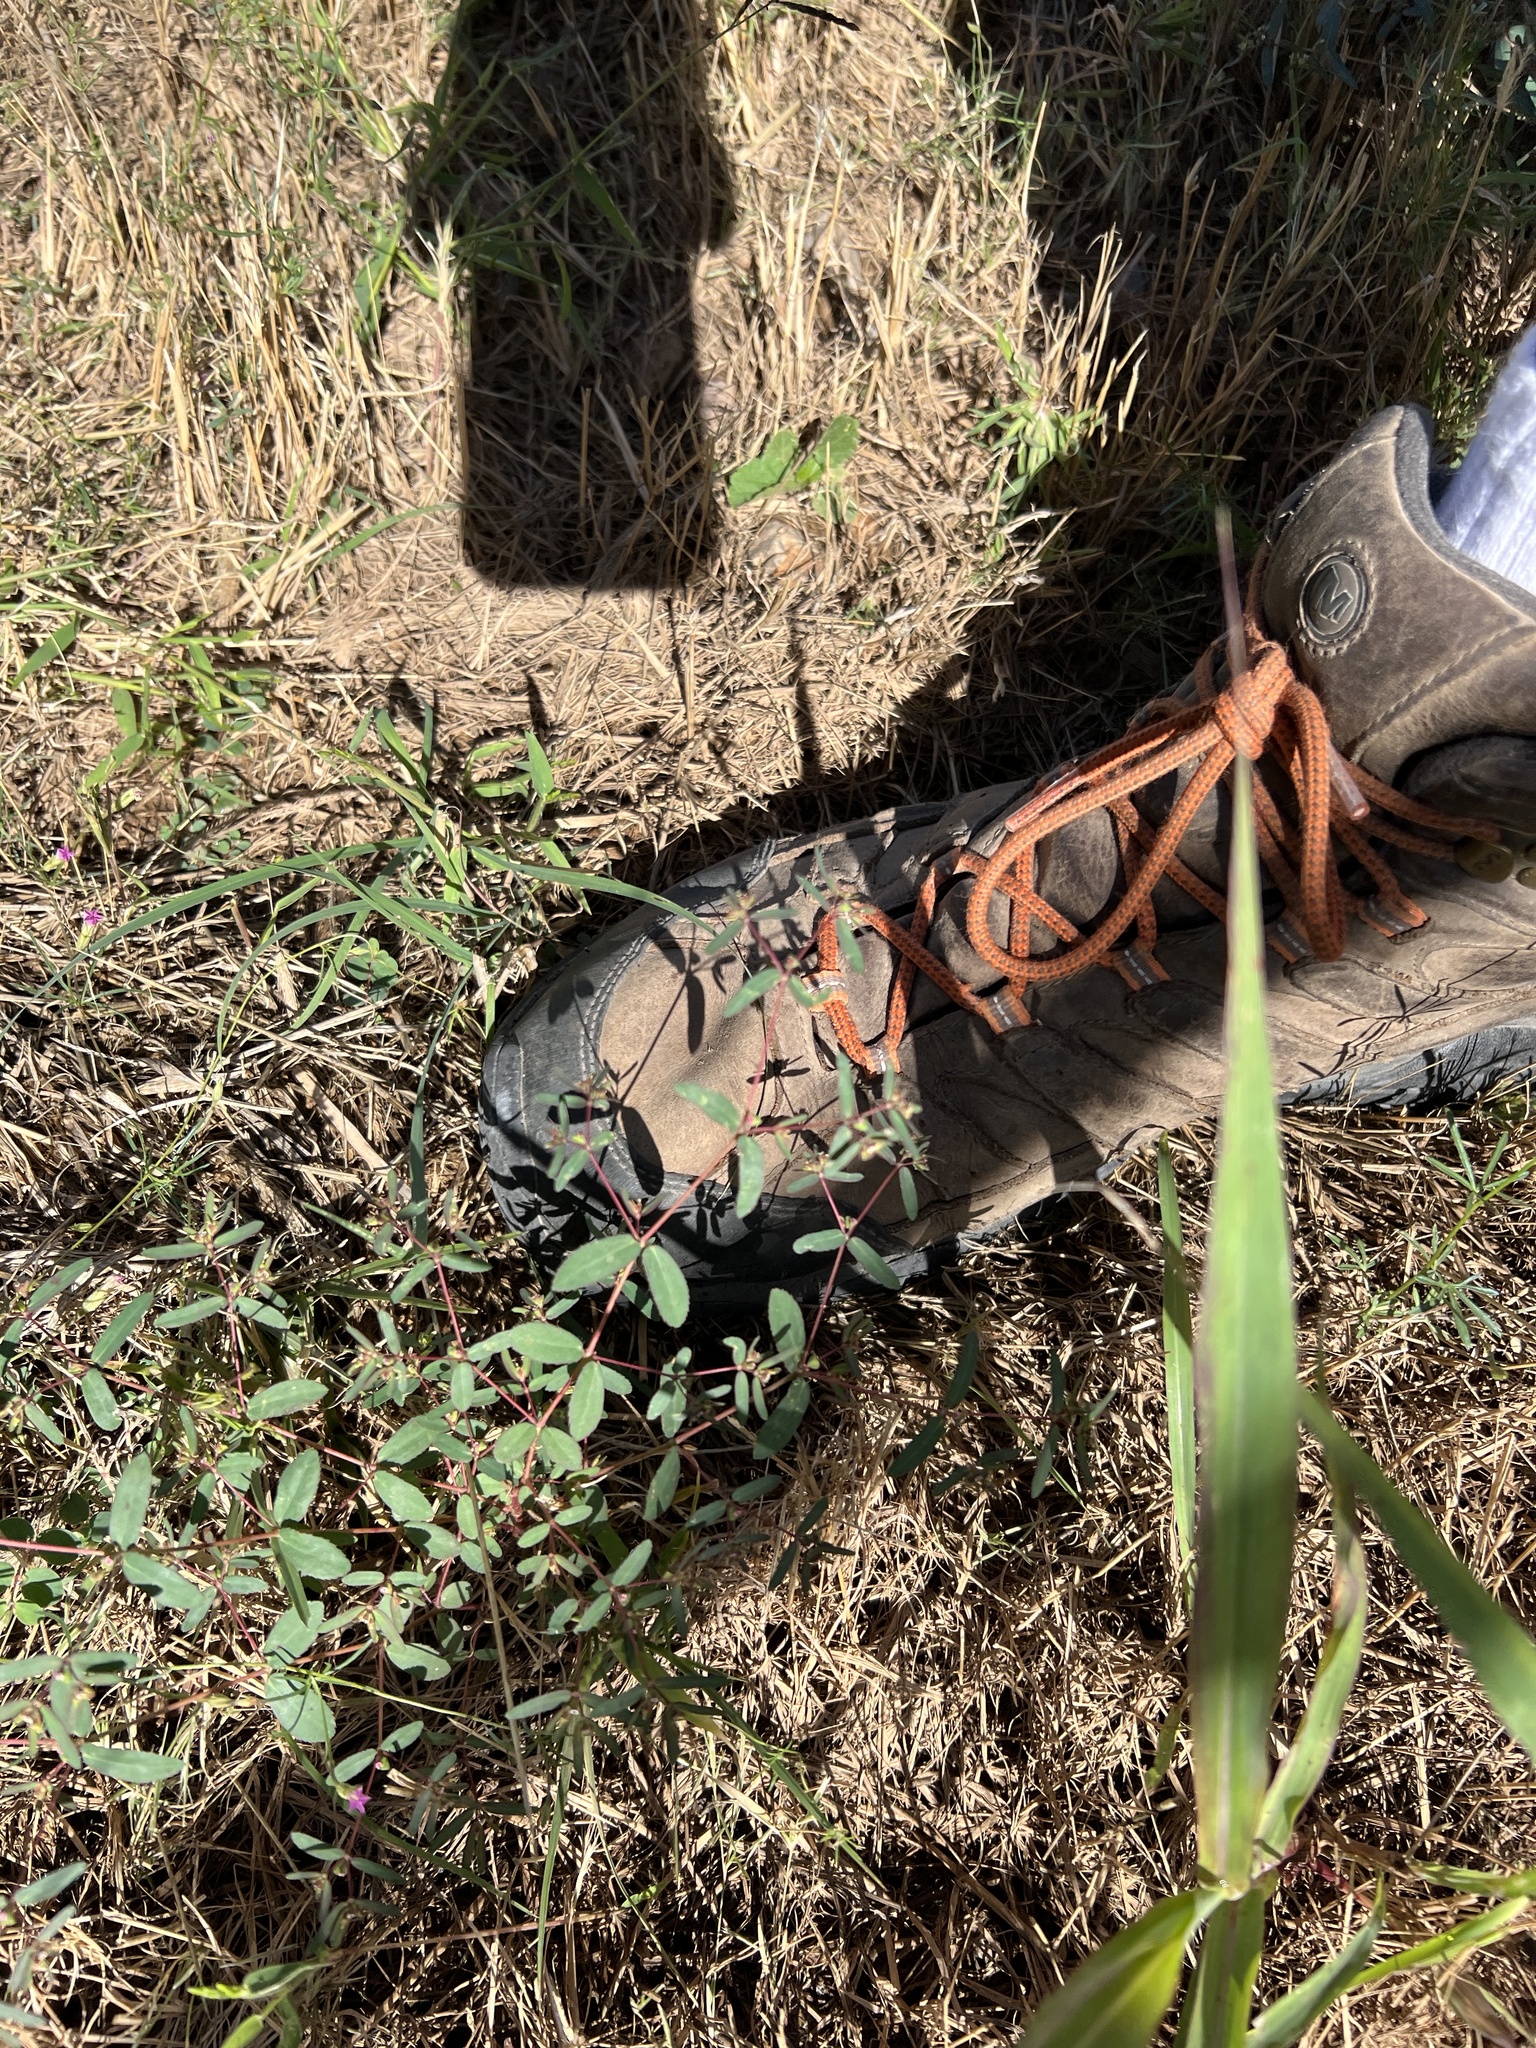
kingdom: Plantae
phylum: Tracheophyta
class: Magnoliopsida
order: Malpighiales
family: Euphorbiaceae
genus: Euphorbia
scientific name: Euphorbia hyssopifolia
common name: Hyssopleaf sandmat
